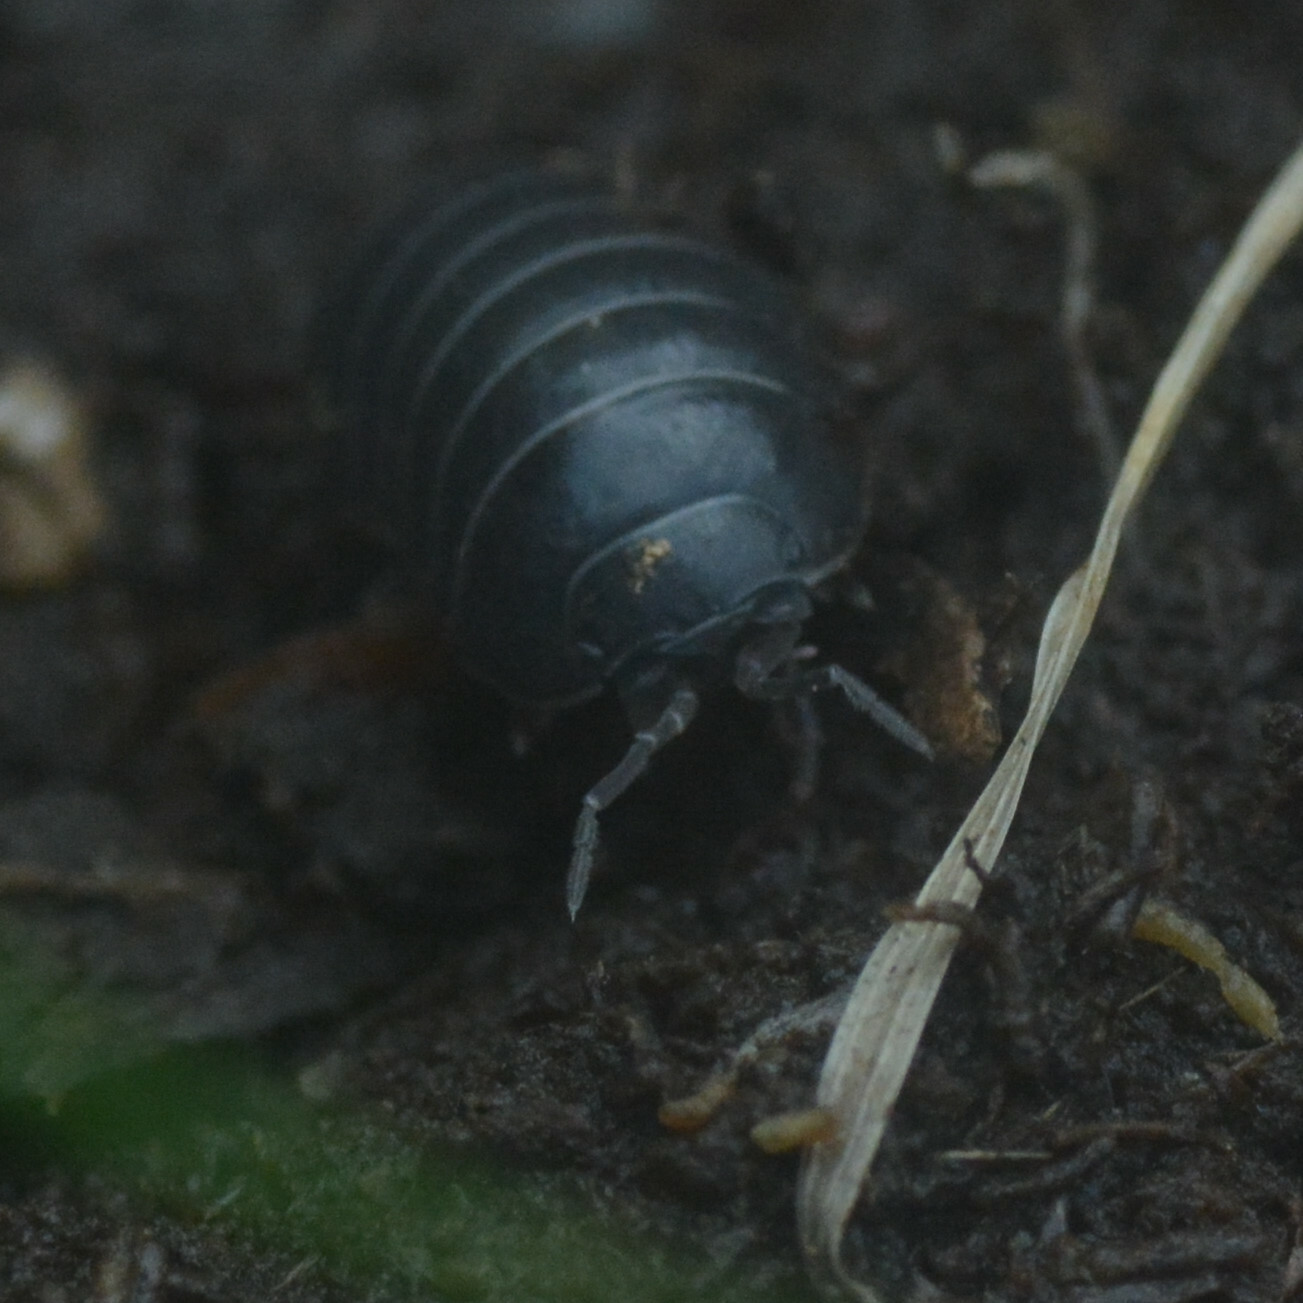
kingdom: Animalia
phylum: Arthropoda
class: Malacostraca
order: Isopoda
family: Armadillidiidae
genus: Armadillidium
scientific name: Armadillidium vulgare
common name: Common pill woodlouse
